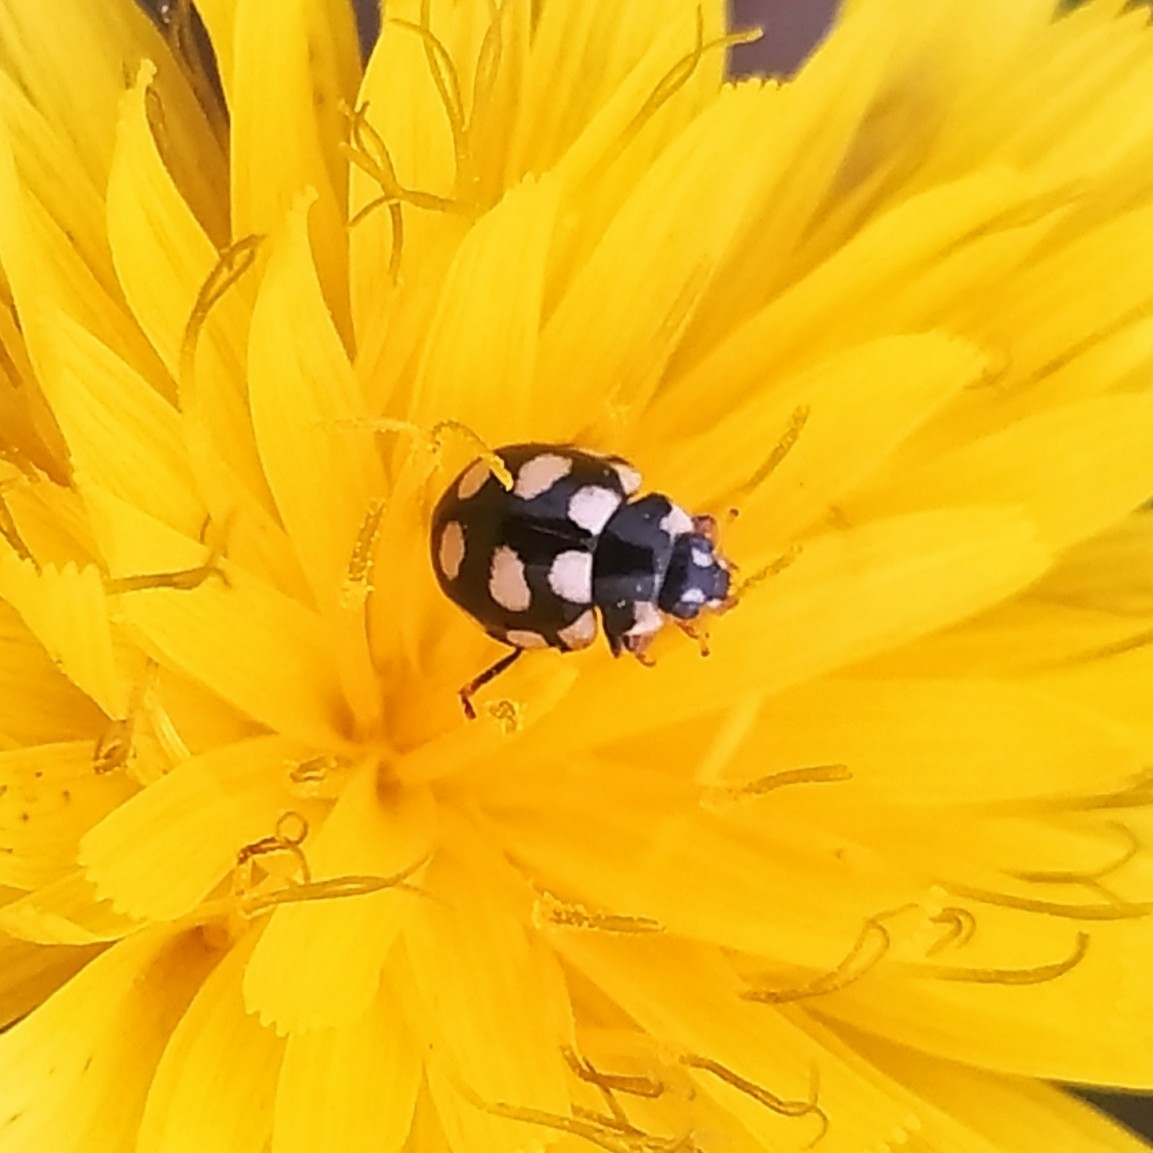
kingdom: Animalia
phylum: Arthropoda
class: Insecta
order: Coleoptera
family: Coccinellidae
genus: Coccinula
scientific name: Coccinula quatuordecimpustulata
